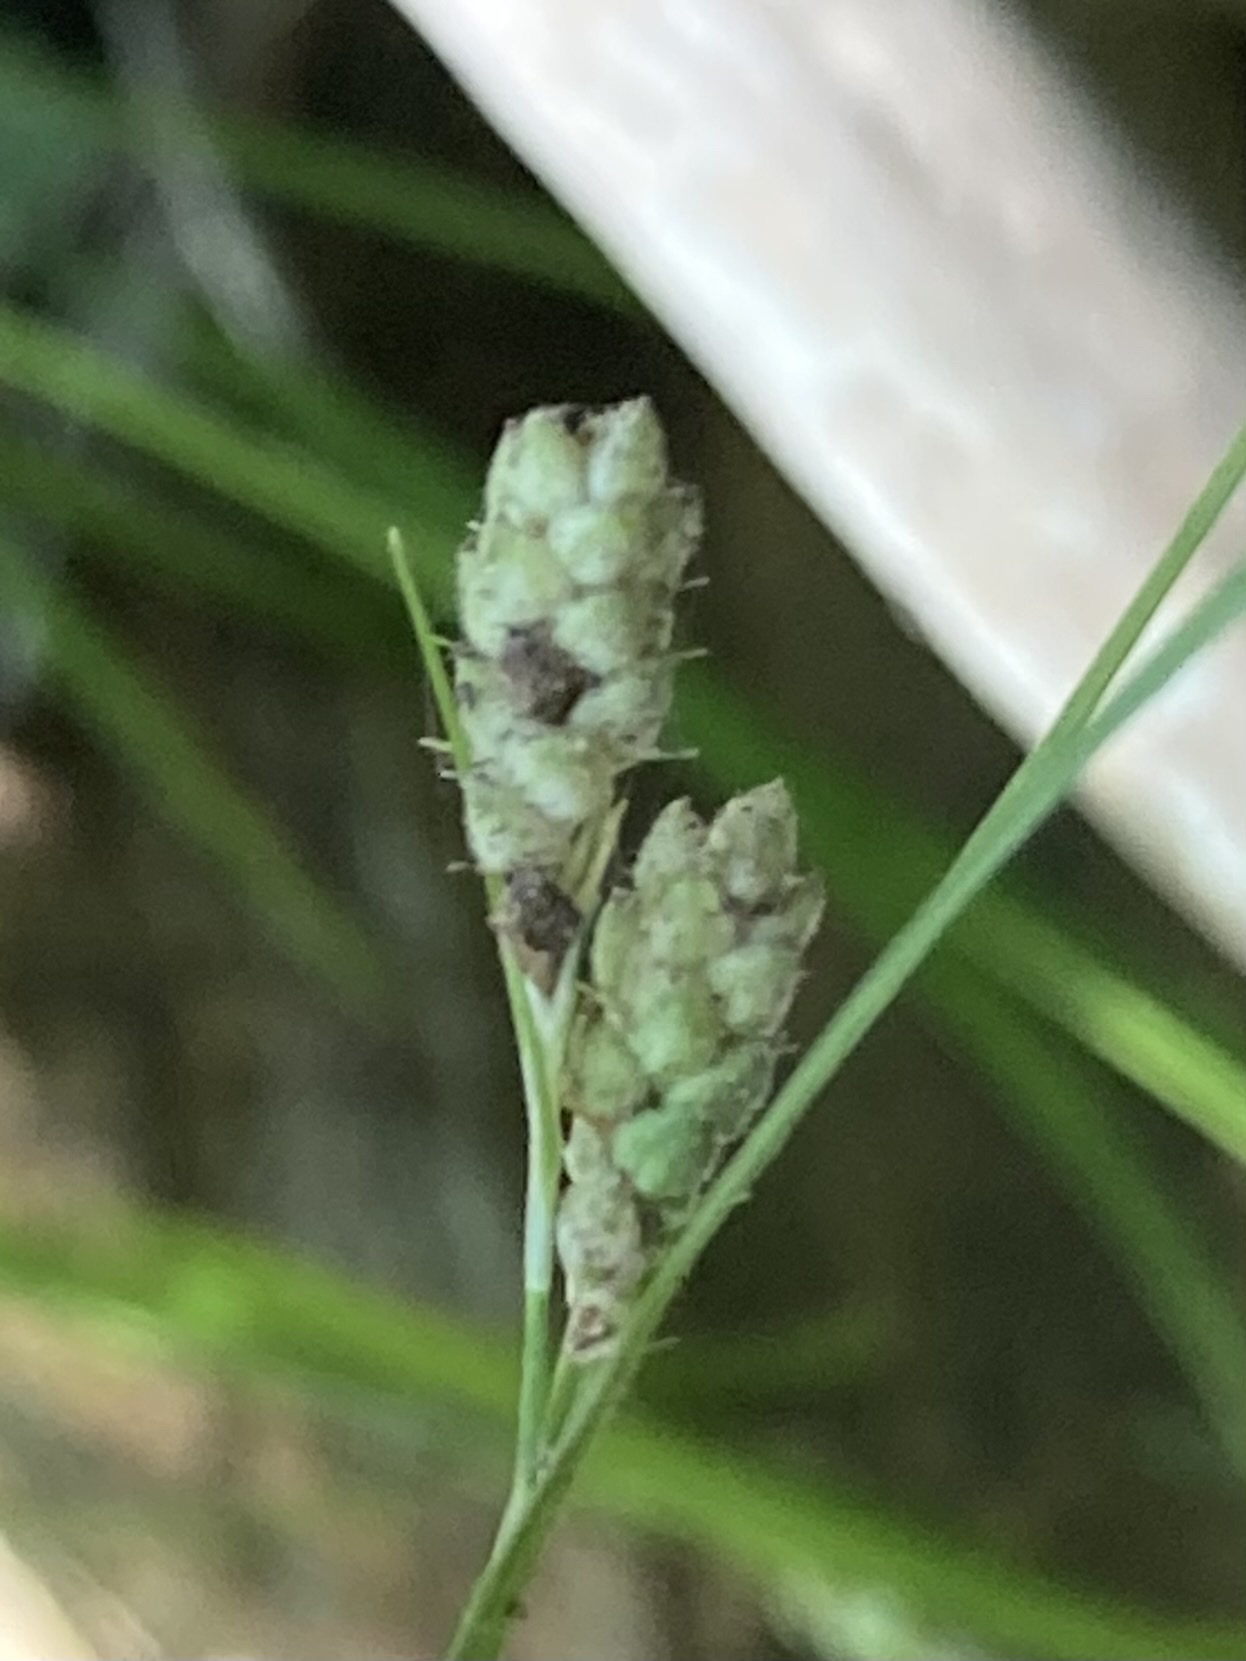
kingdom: Plantae
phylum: Tracheophyta
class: Liliopsida
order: Poales
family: Cyperaceae
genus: Carex
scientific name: Carex swanii
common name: Downy green sedge
